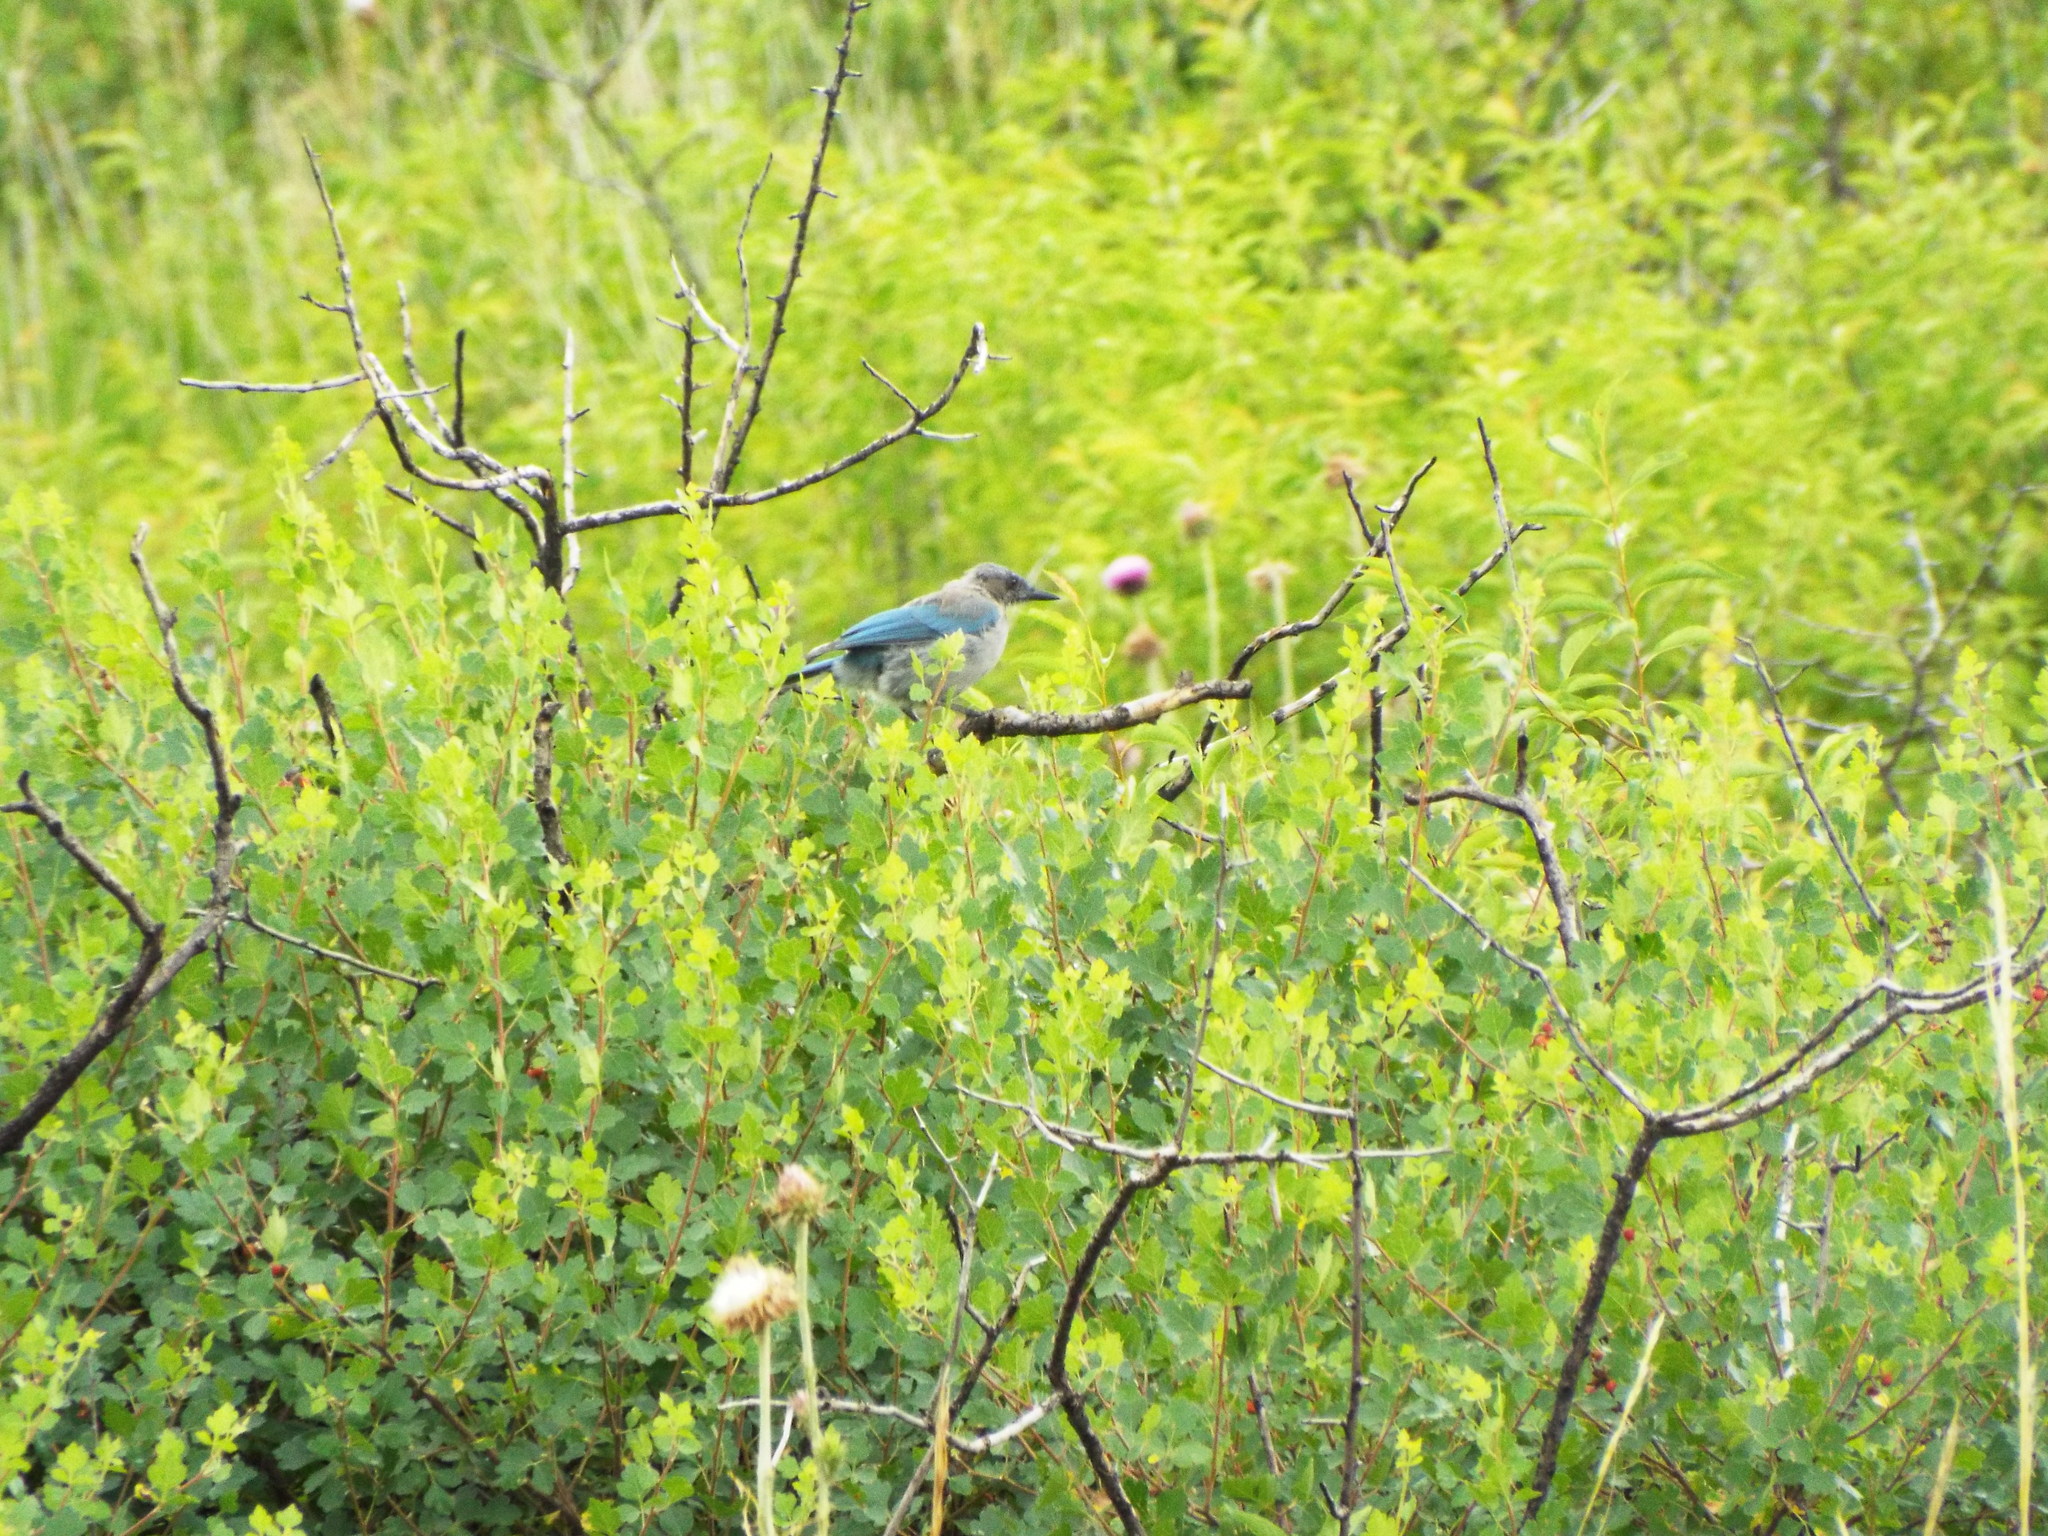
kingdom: Animalia
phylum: Chordata
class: Aves
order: Passeriformes
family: Corvidae
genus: Aphelocoma
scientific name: Aphelocoma woodhouseii
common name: Woodhouse's scrub-jay
